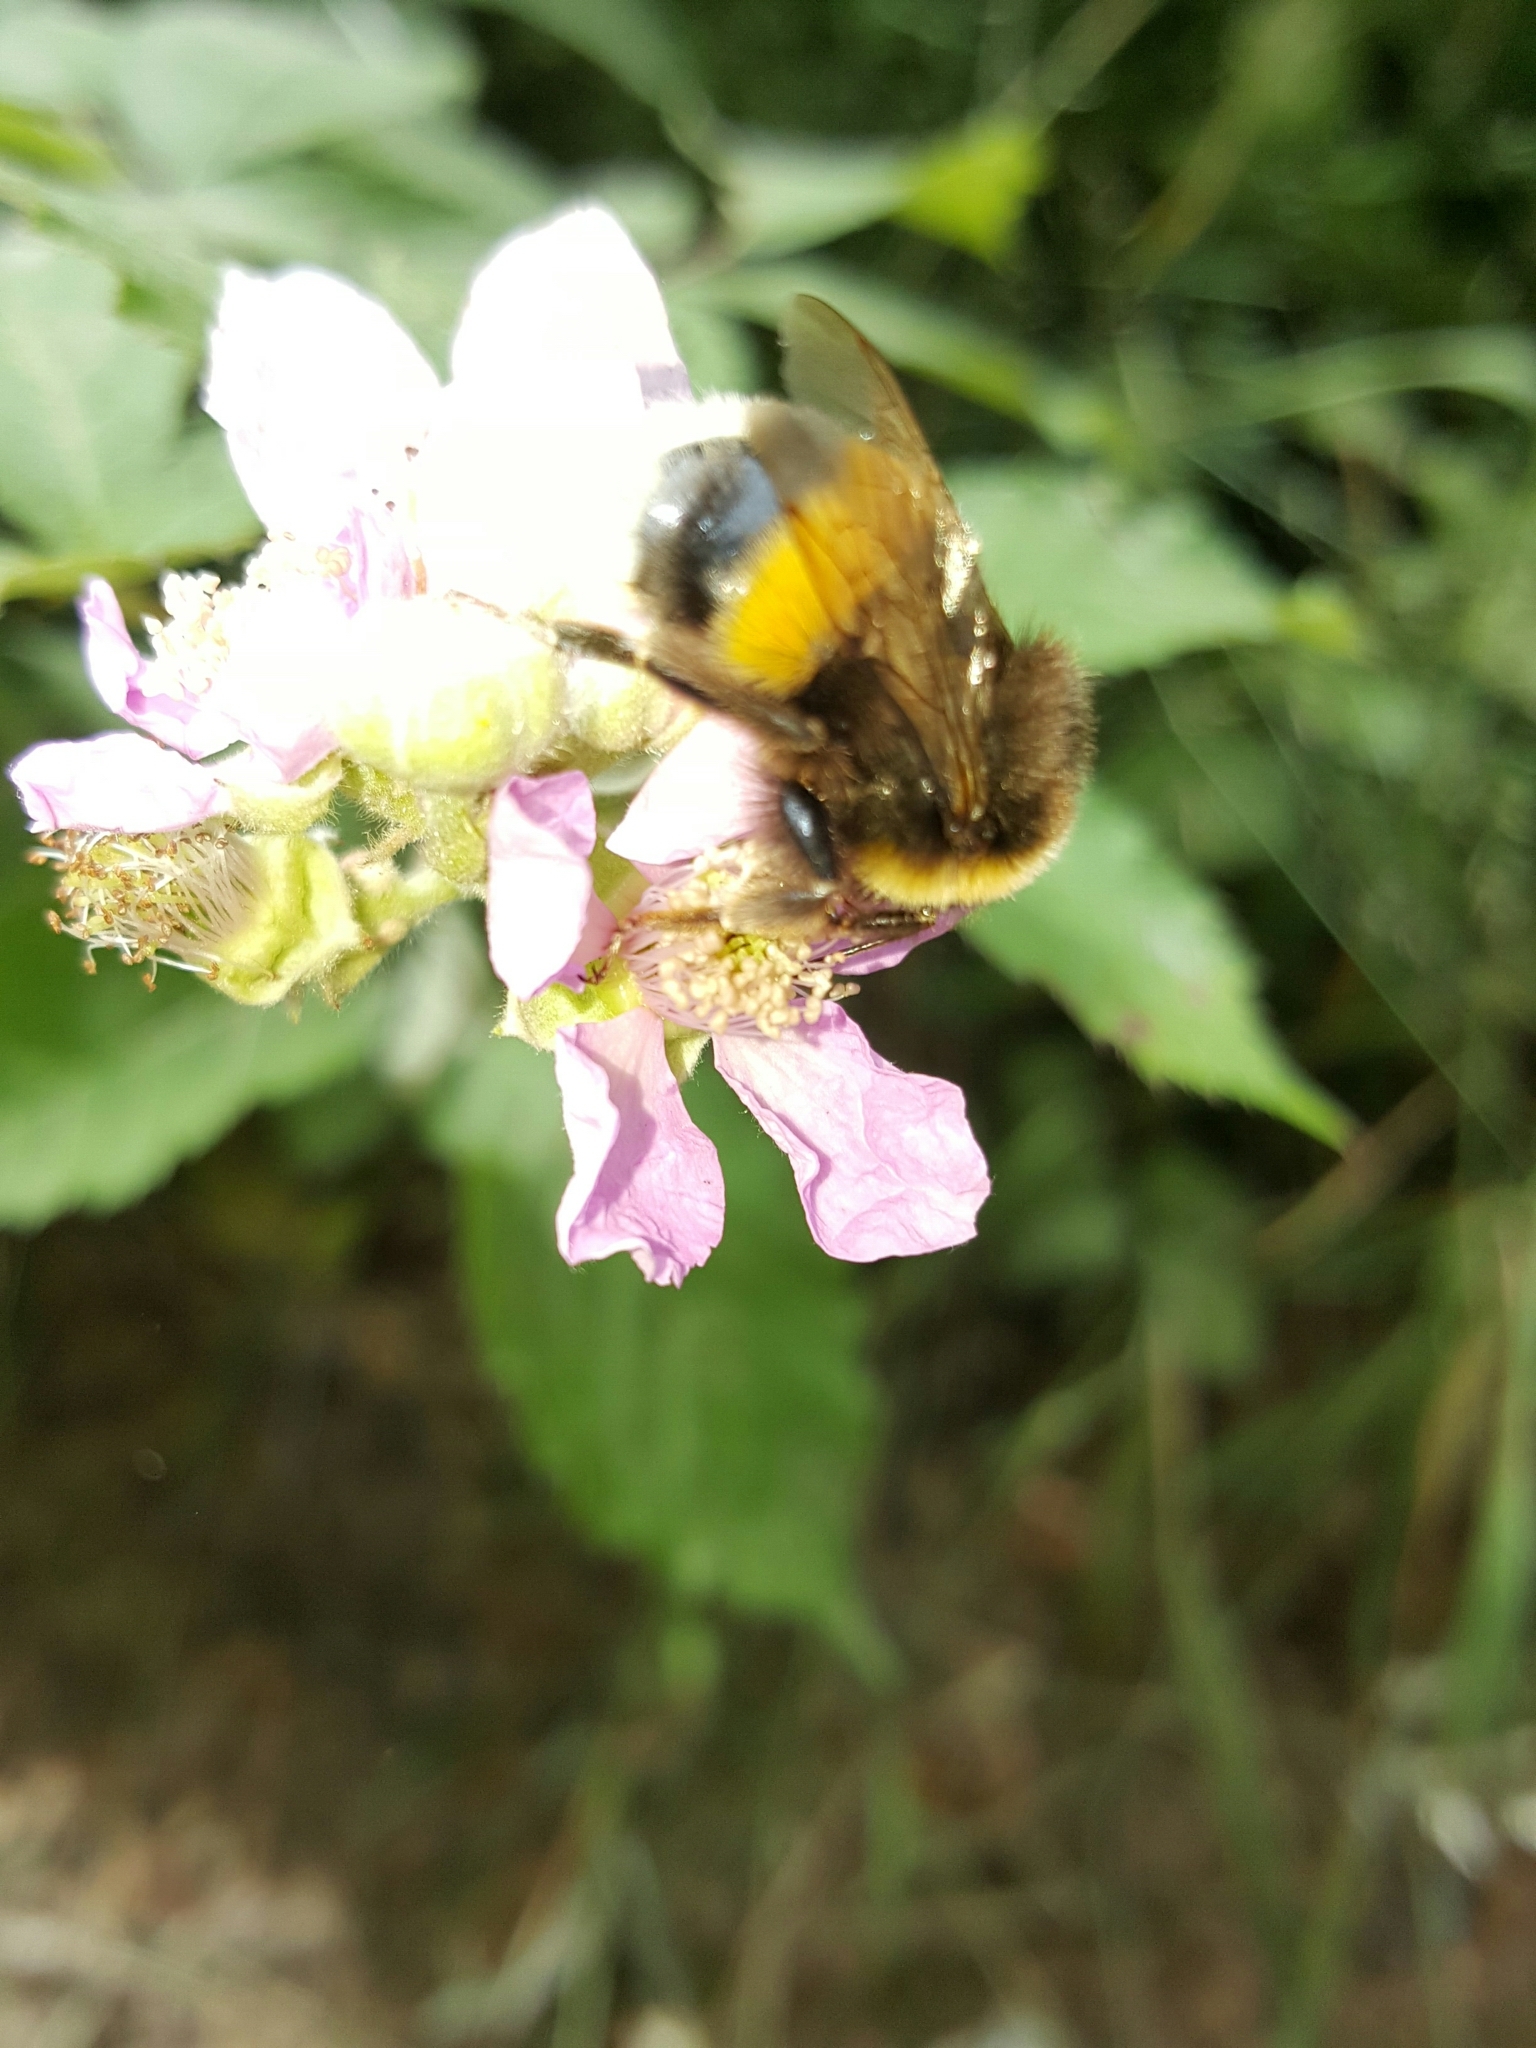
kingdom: Animalia
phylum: Arthropoda
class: Insecta
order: Hymenoptera
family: Apidae
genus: Bombus
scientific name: Bombus terrestris
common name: Buff-tailed bumblebee
